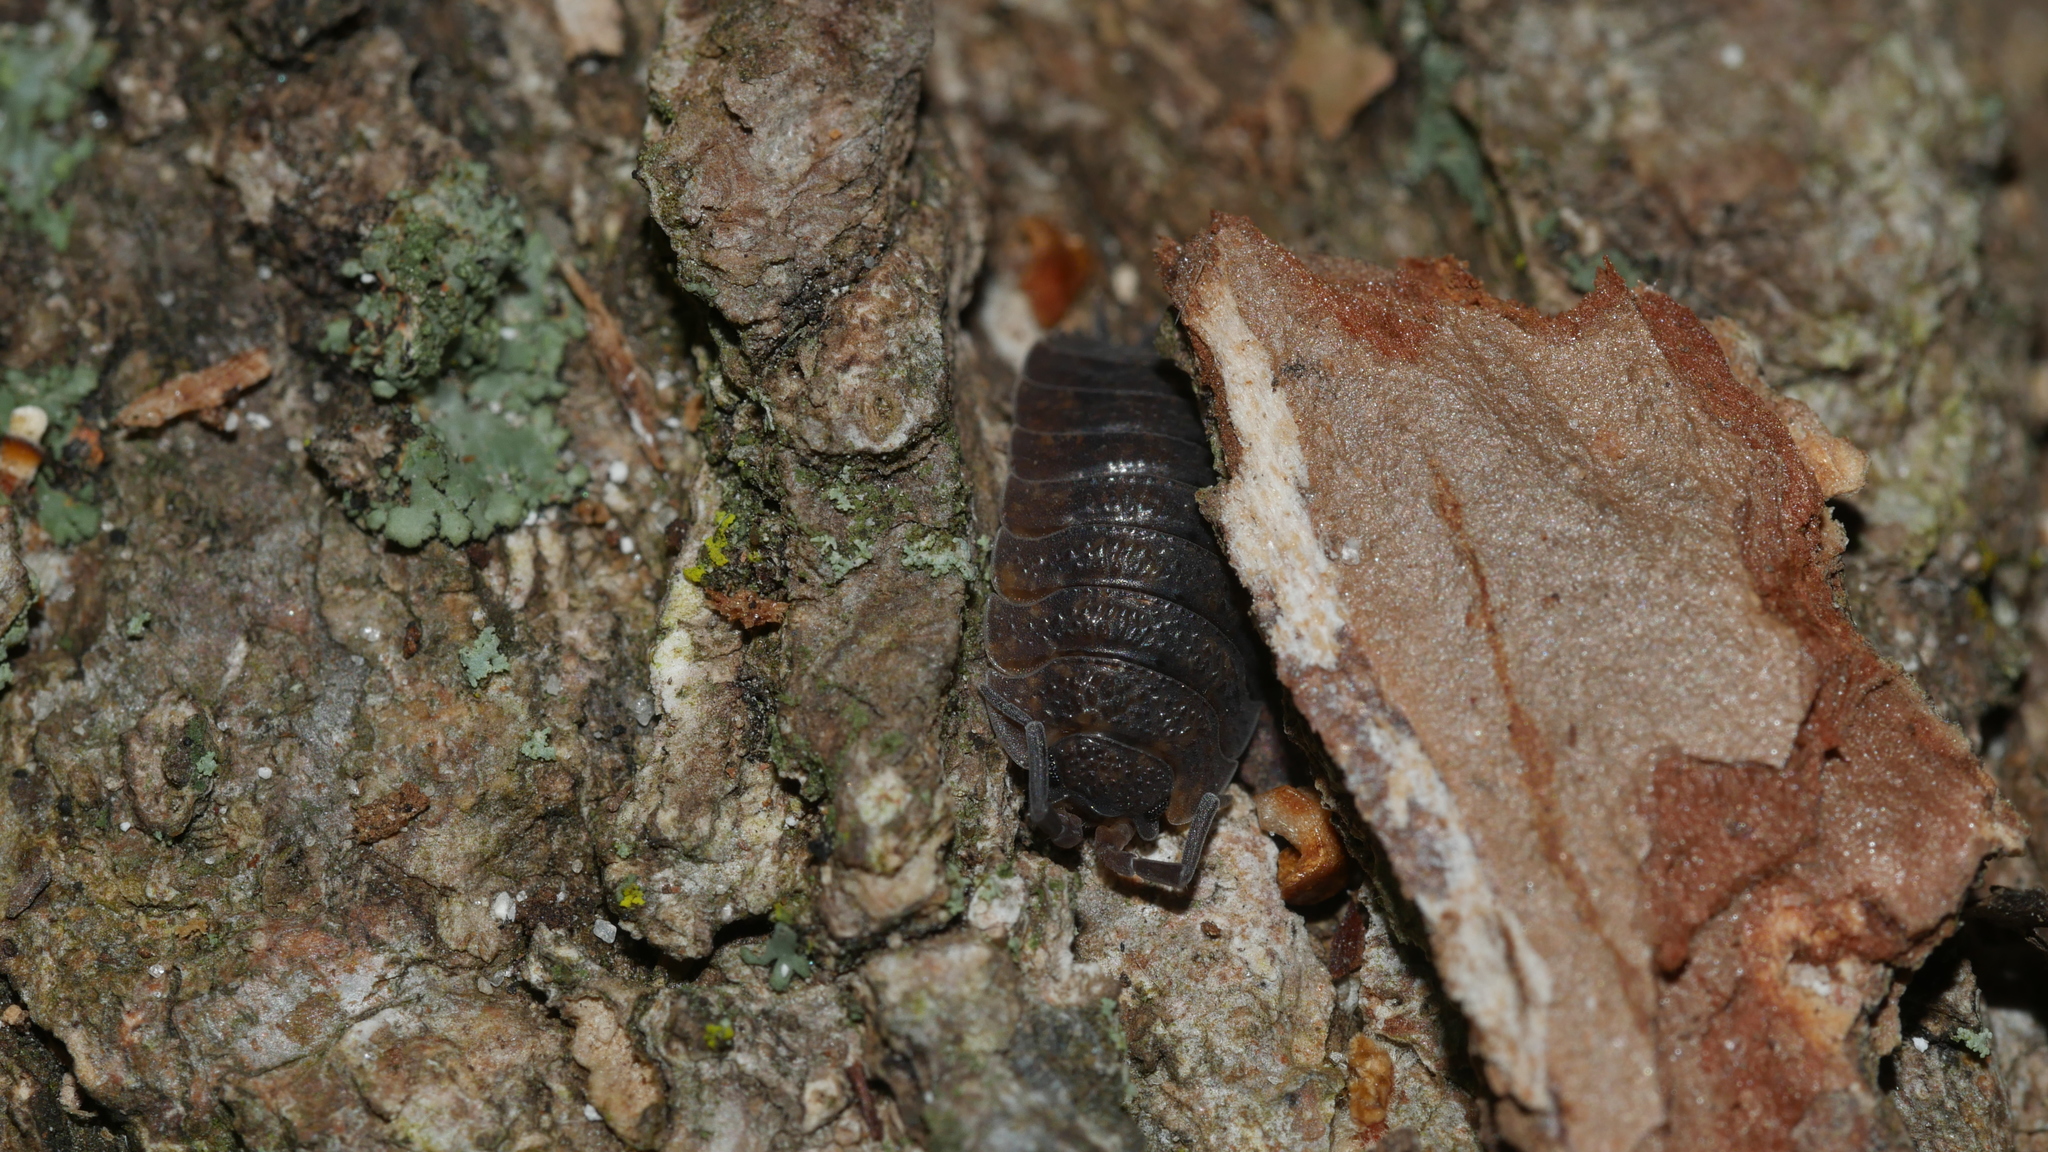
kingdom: Animalia
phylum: Arthropoda
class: Malacostraca
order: Isopoda
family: Porcellionidae
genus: Porcellio
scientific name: Porcellio scaber
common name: Common rough woodlouse
